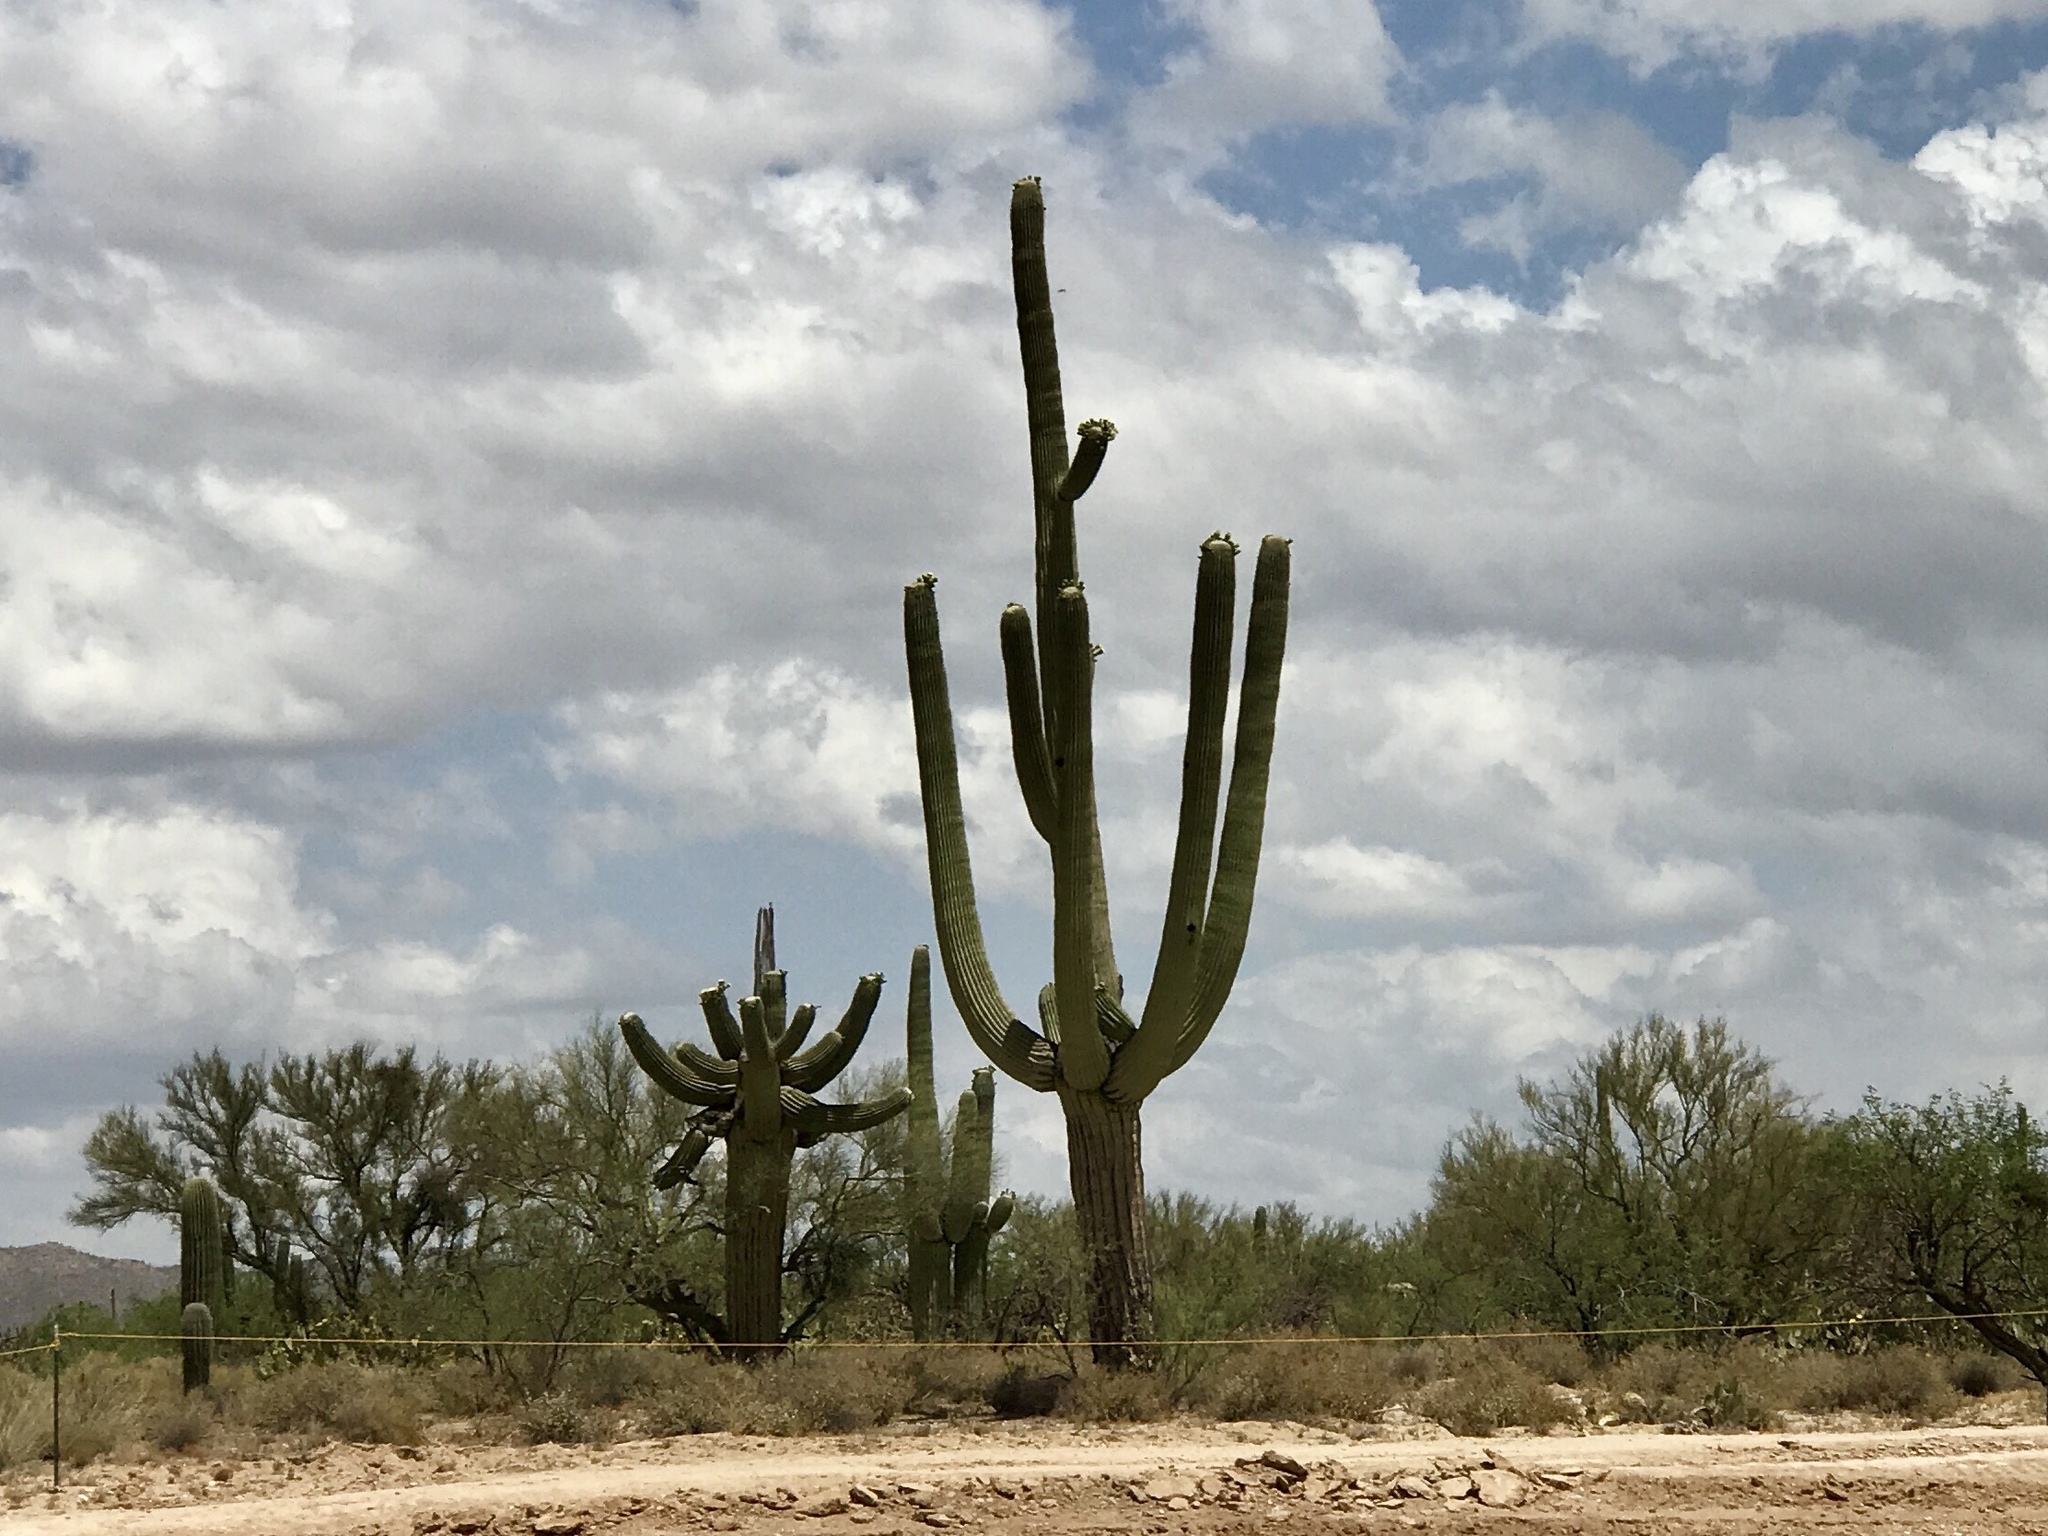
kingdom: Plantae
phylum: Tracheophyta
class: Magnoliopsida
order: Caryophyllales
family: Cactaceae
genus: Carnegiea
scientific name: Carnegiea gigantea
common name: Saguaro
